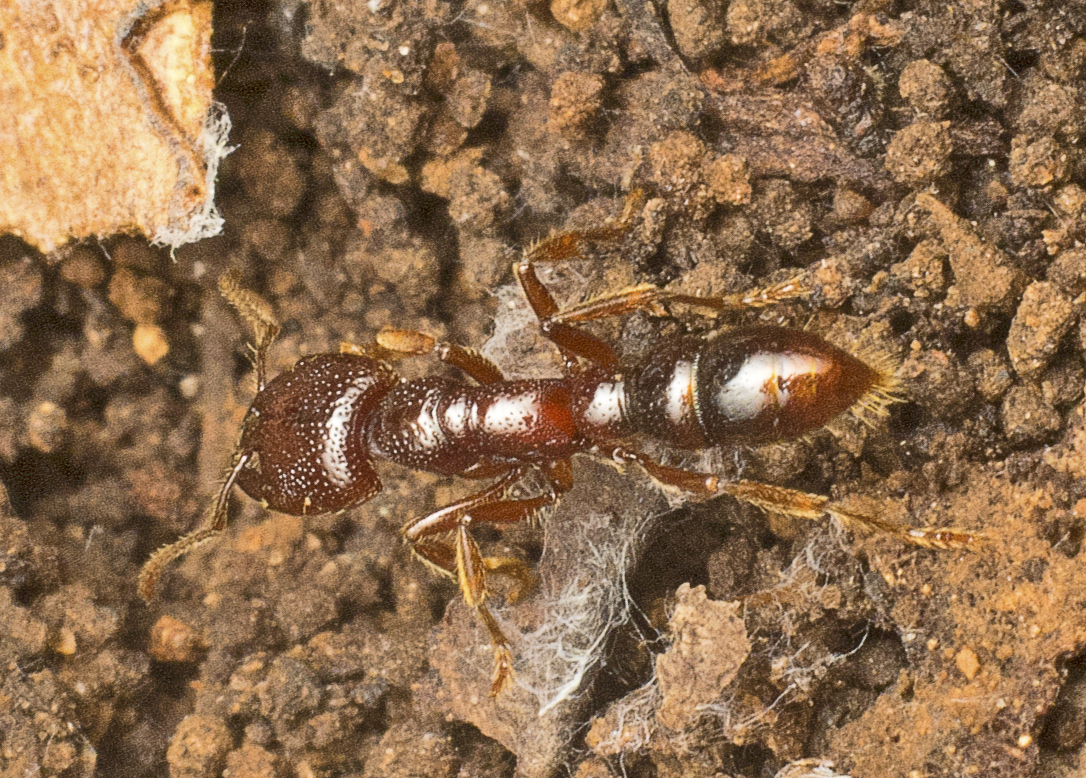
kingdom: Animalia
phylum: Arthropoda
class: Insecta
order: Hymenoptera
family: Formicidae
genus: Amblyopone
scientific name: Amblyopone australis
